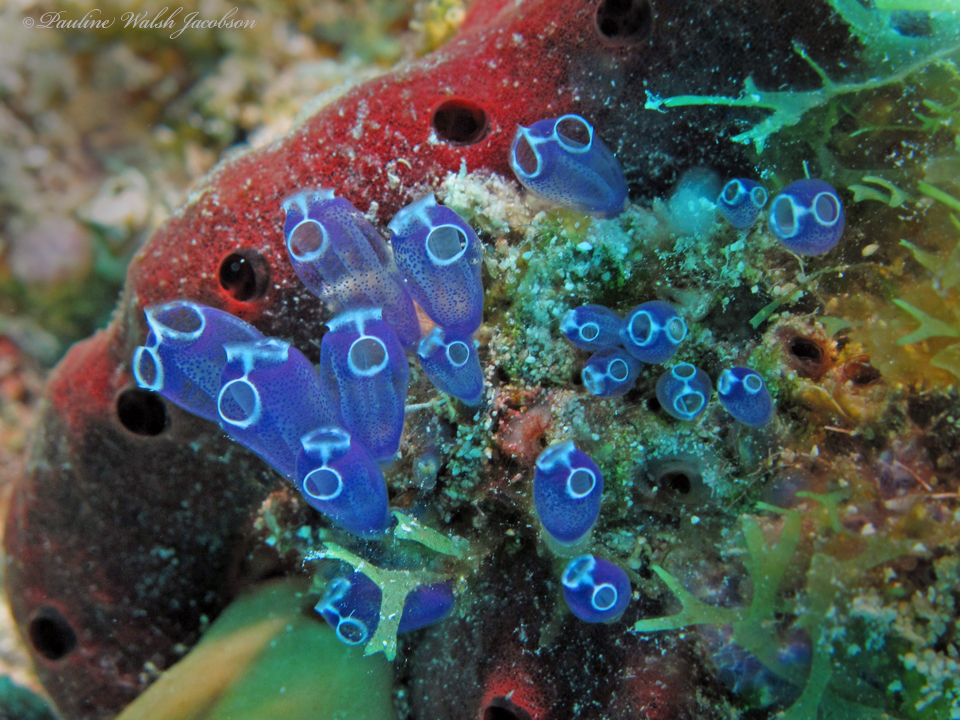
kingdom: Animalia
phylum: Chordata
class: Ascidiacea
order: Aplousobranchia
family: Clavelinidae
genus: Clavelina
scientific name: Clavelina puertosecensis
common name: Blue bell tunicate
